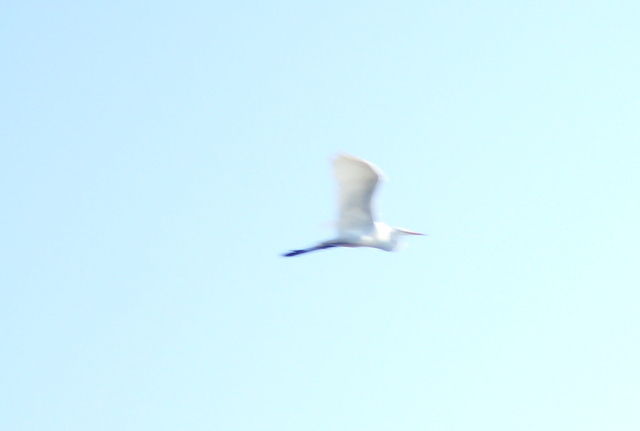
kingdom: Animalia
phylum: Chordata
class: Aves
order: Pelecaniformes
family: Ardeidae
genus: Ardea
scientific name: Ardea alba
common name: Great egret
